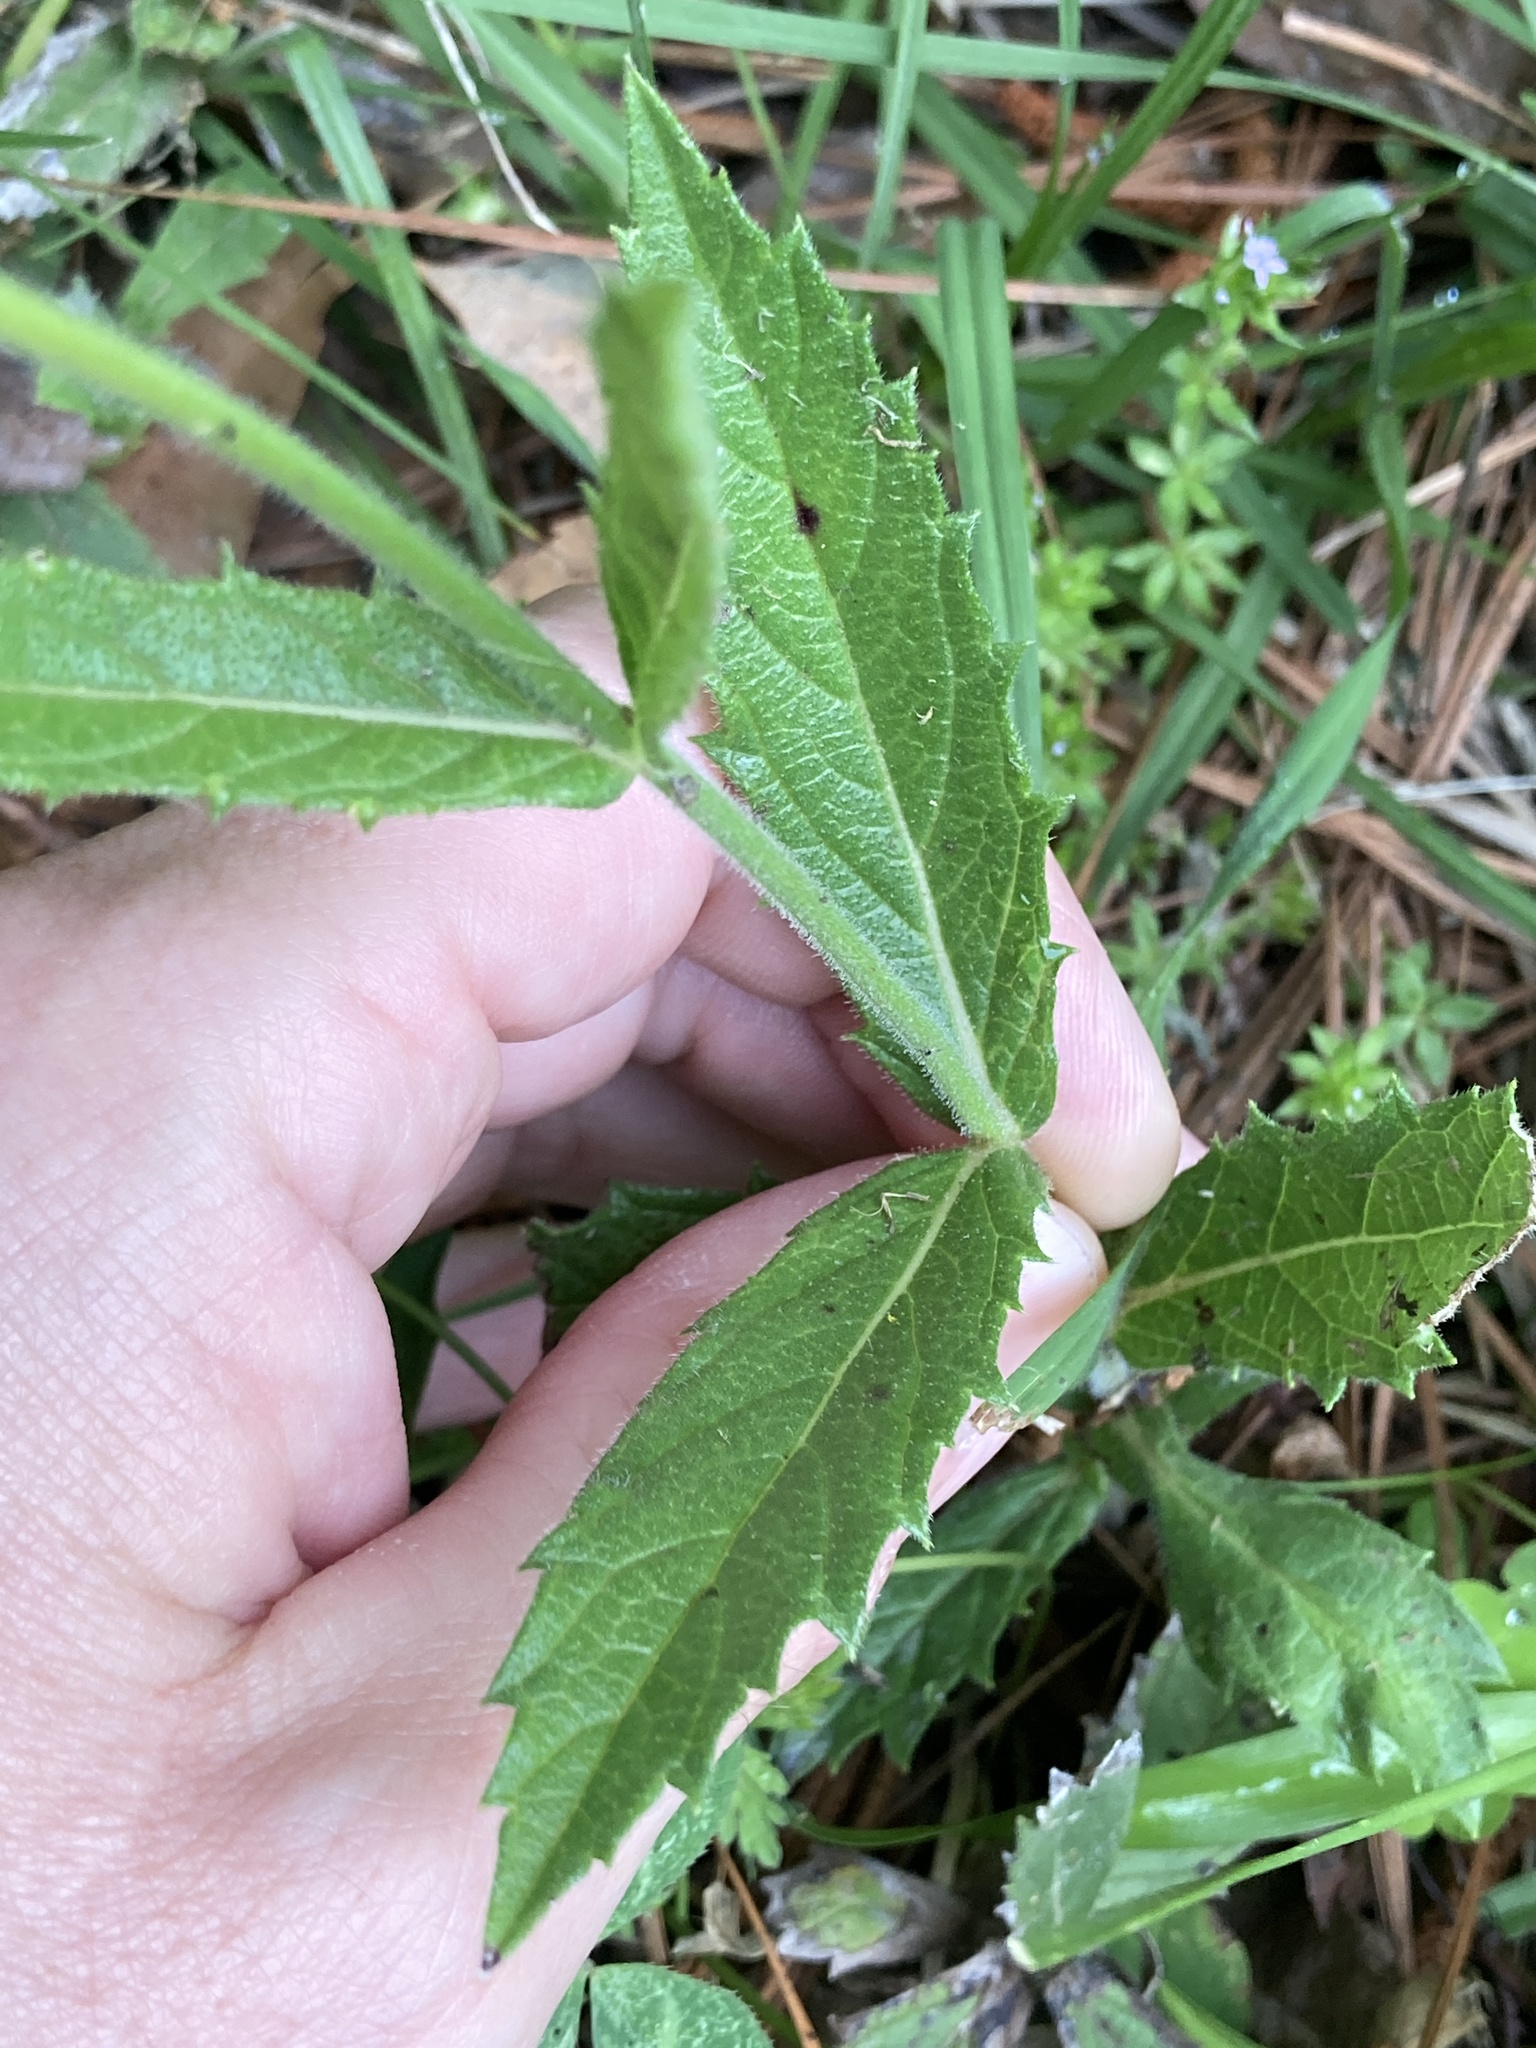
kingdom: Plantae
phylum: Tracheophyta
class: Magnoliopsida
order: Lamiales
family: Verbenaceae
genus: Verbena
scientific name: Verbena rigida
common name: Slender vervain
